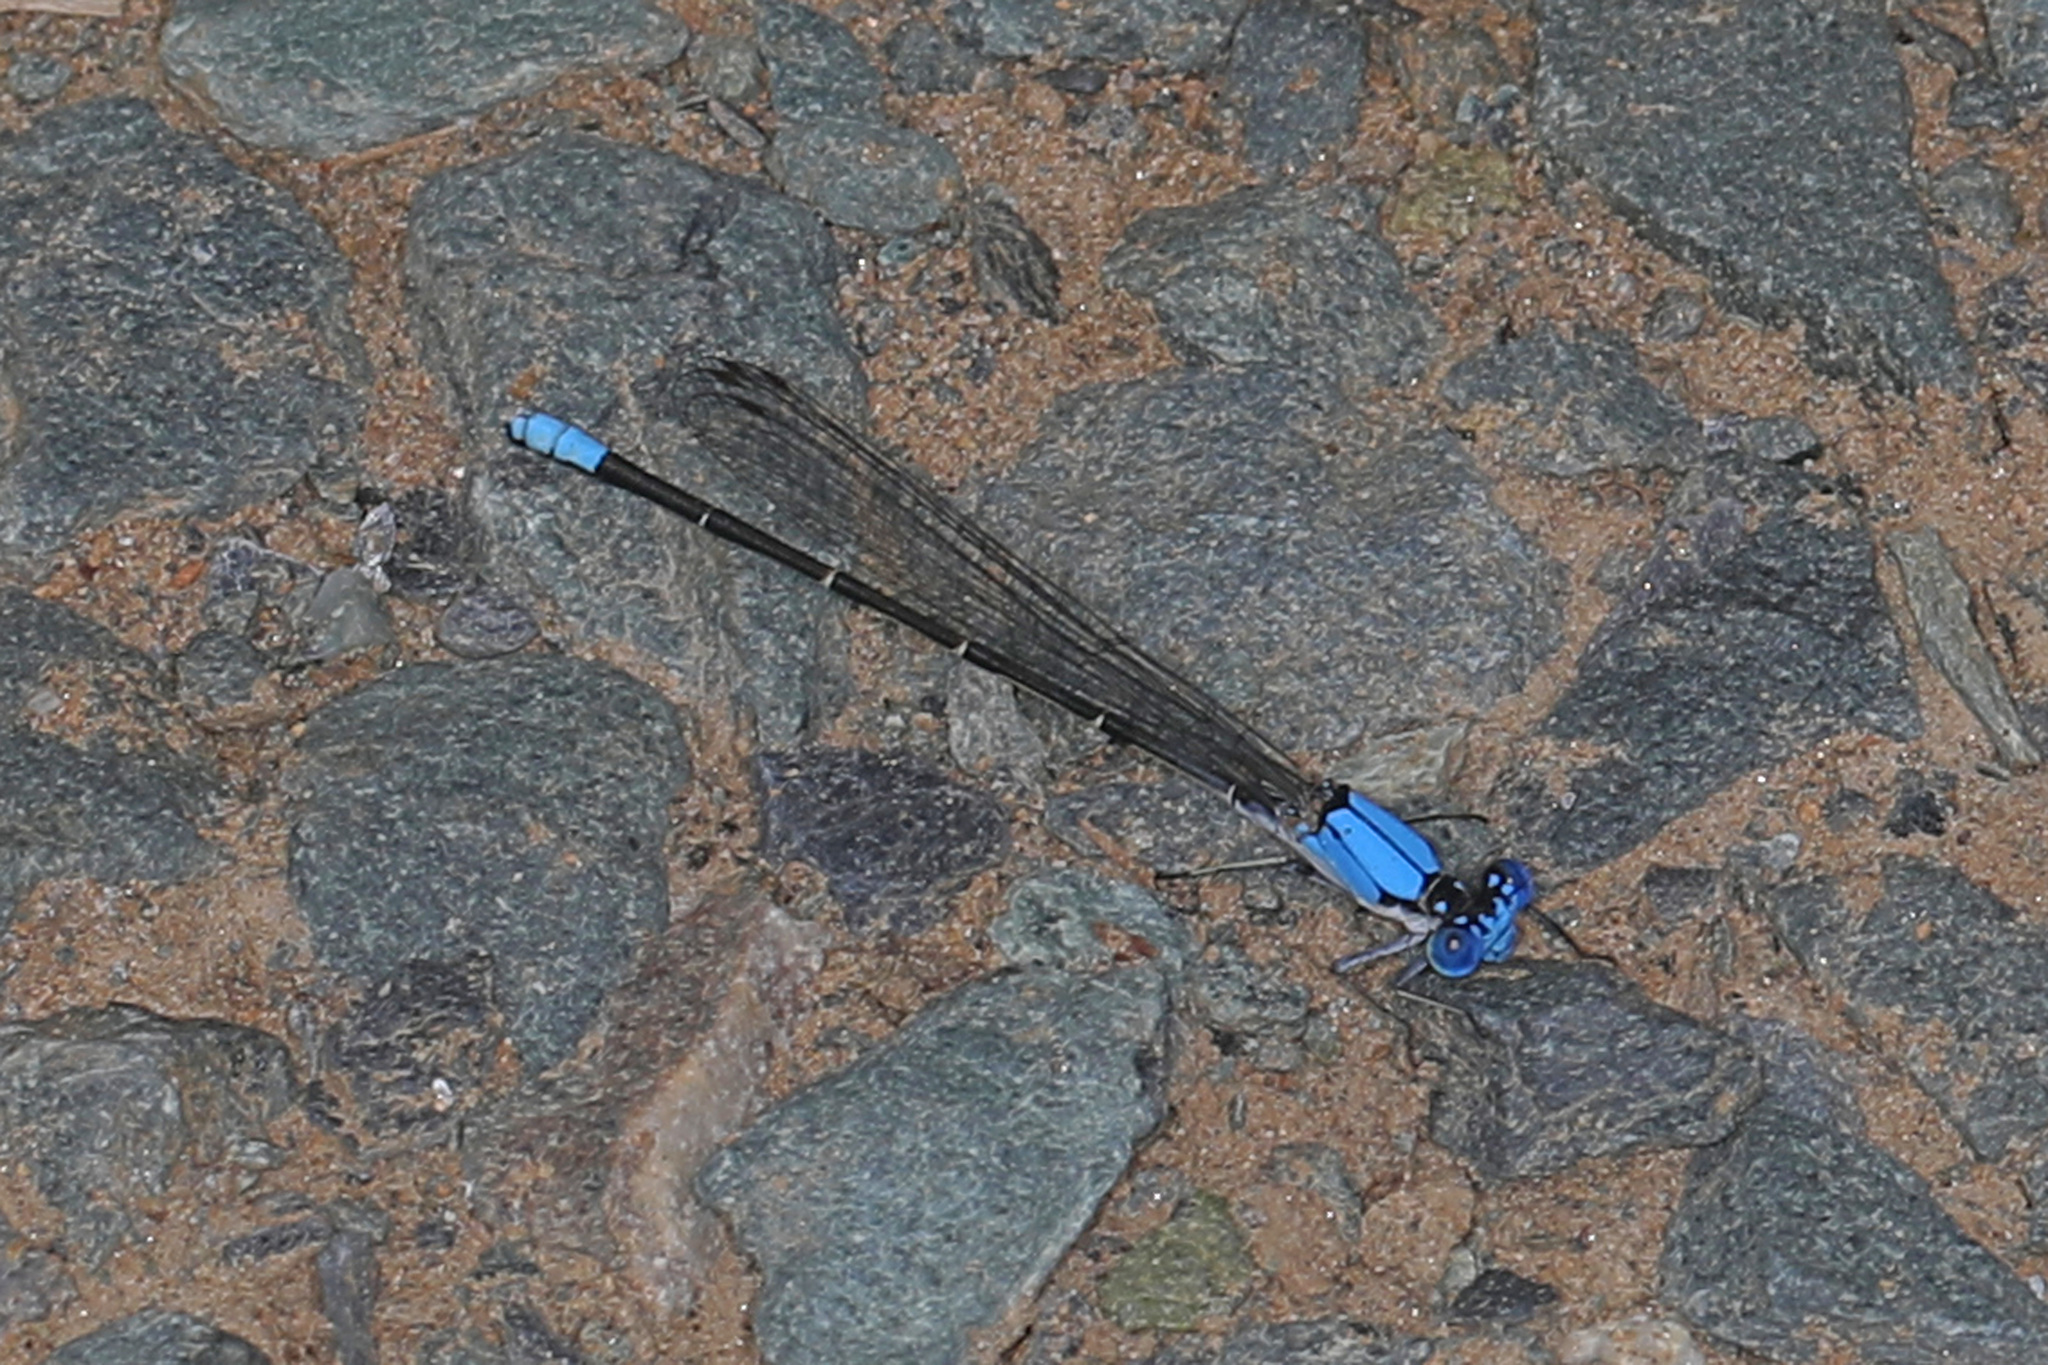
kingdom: Animalia
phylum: Arthropoda
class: Insecta
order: Odonata
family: Coenagrionidae
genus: Argia
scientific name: Argia apicalis
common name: Blue-fronted dancer
